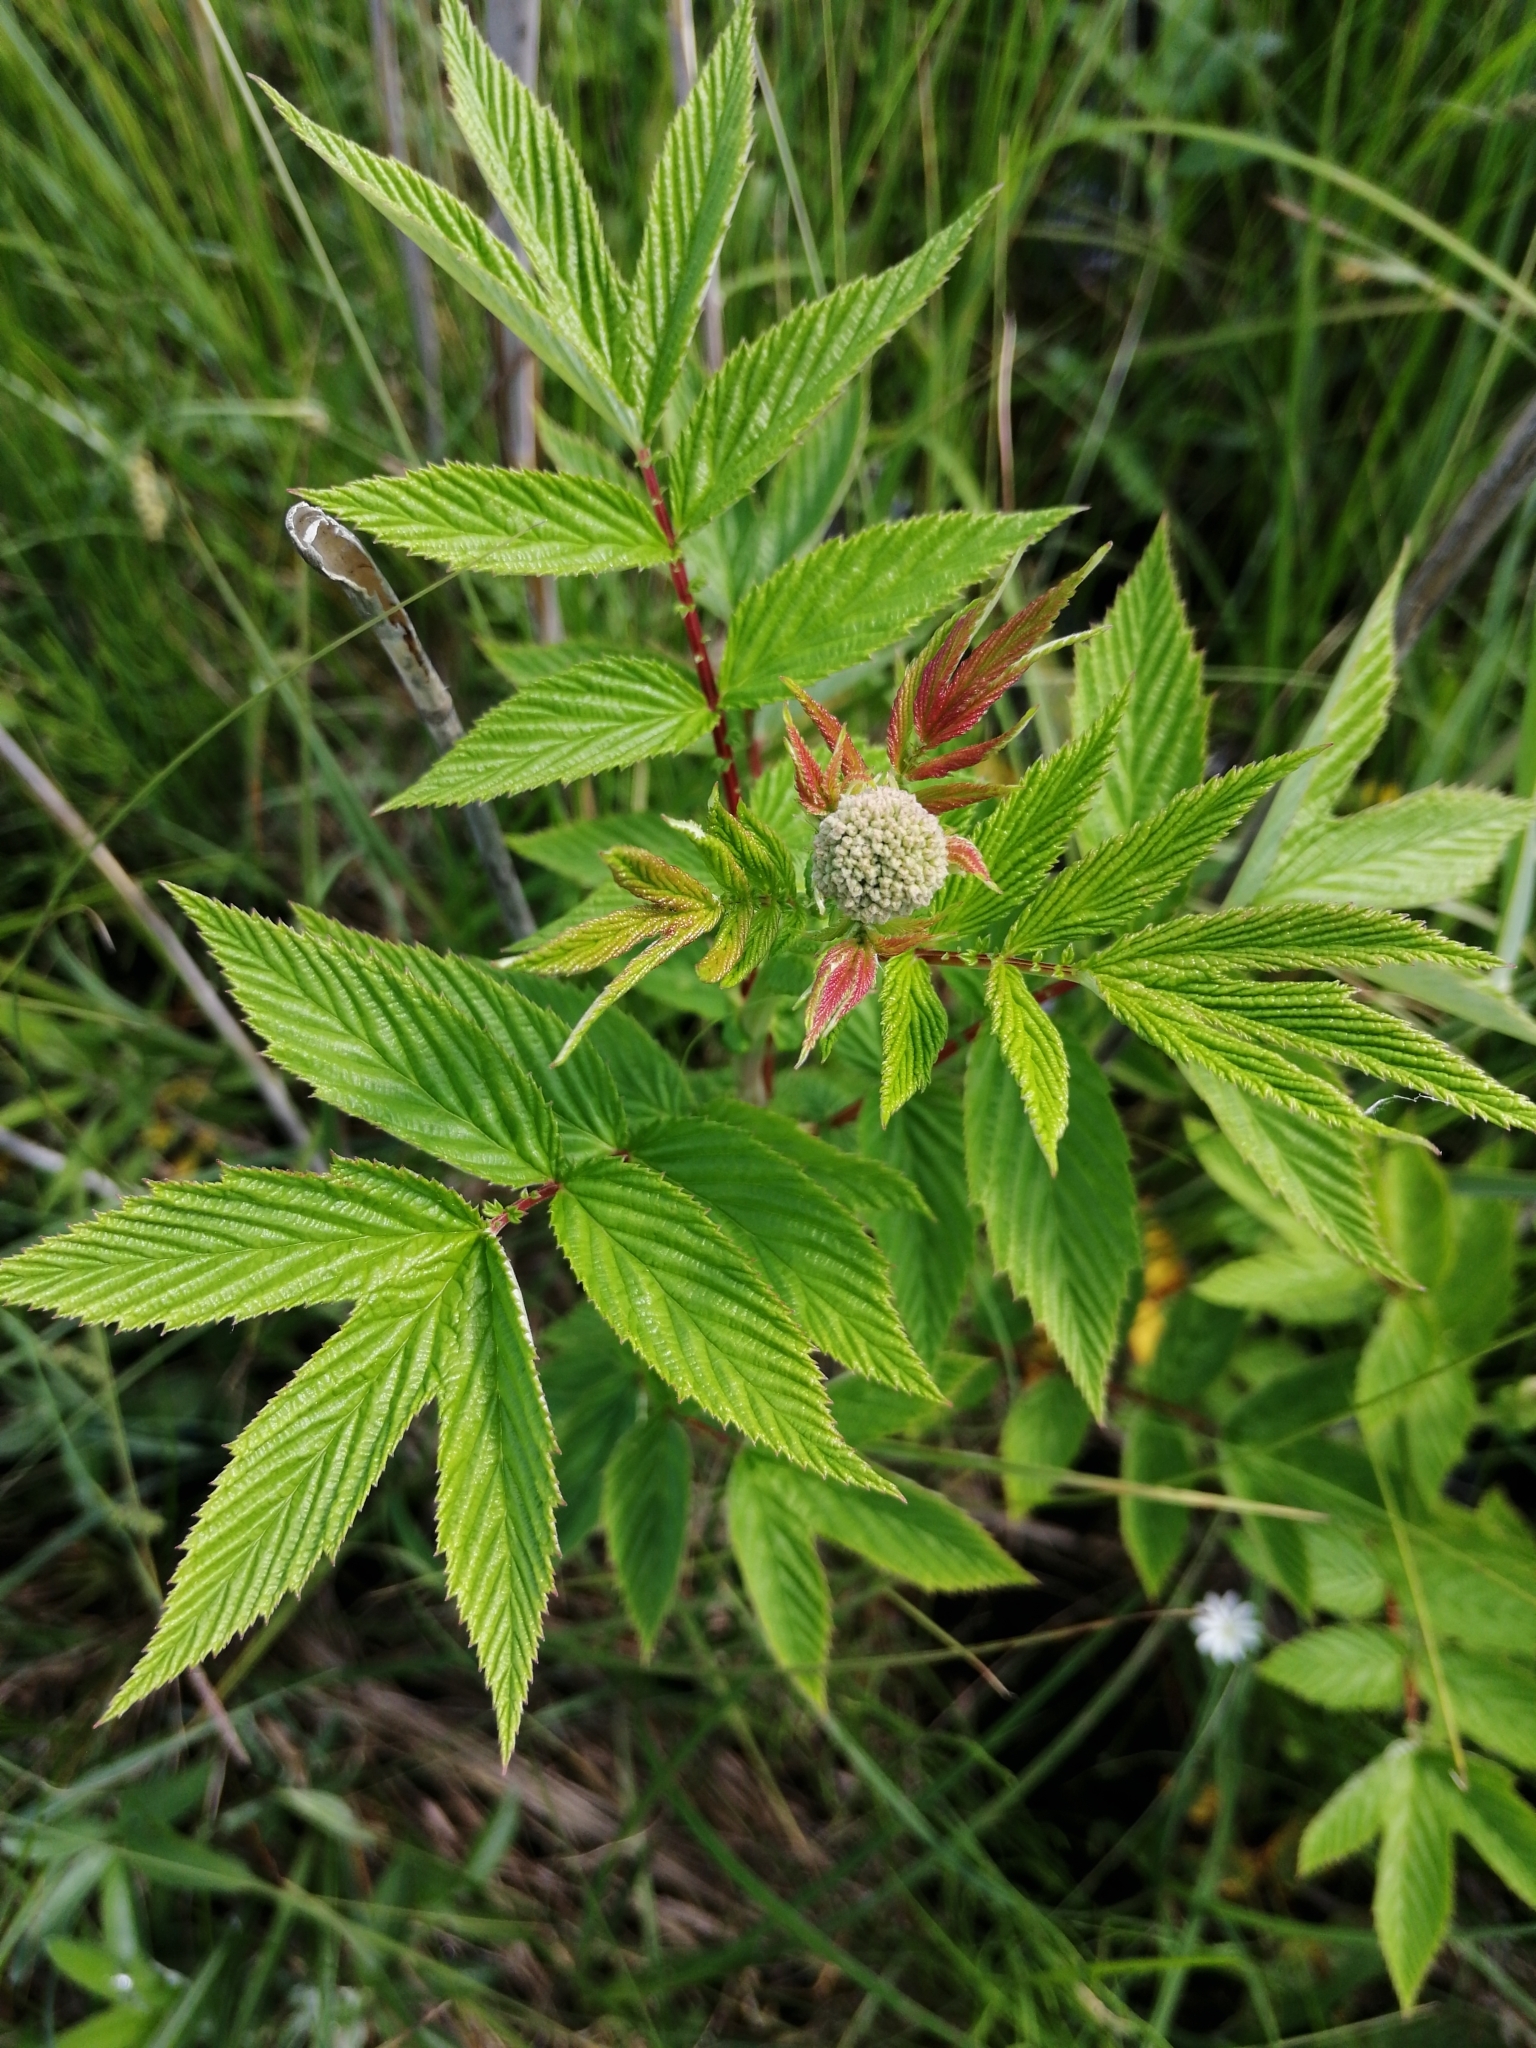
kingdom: Plantae
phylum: Tracheophyta
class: Magnoliopsida
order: Rosales
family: Rosaceae
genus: Filipendula
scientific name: Filipendula ulmaria
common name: Meadowsweet
